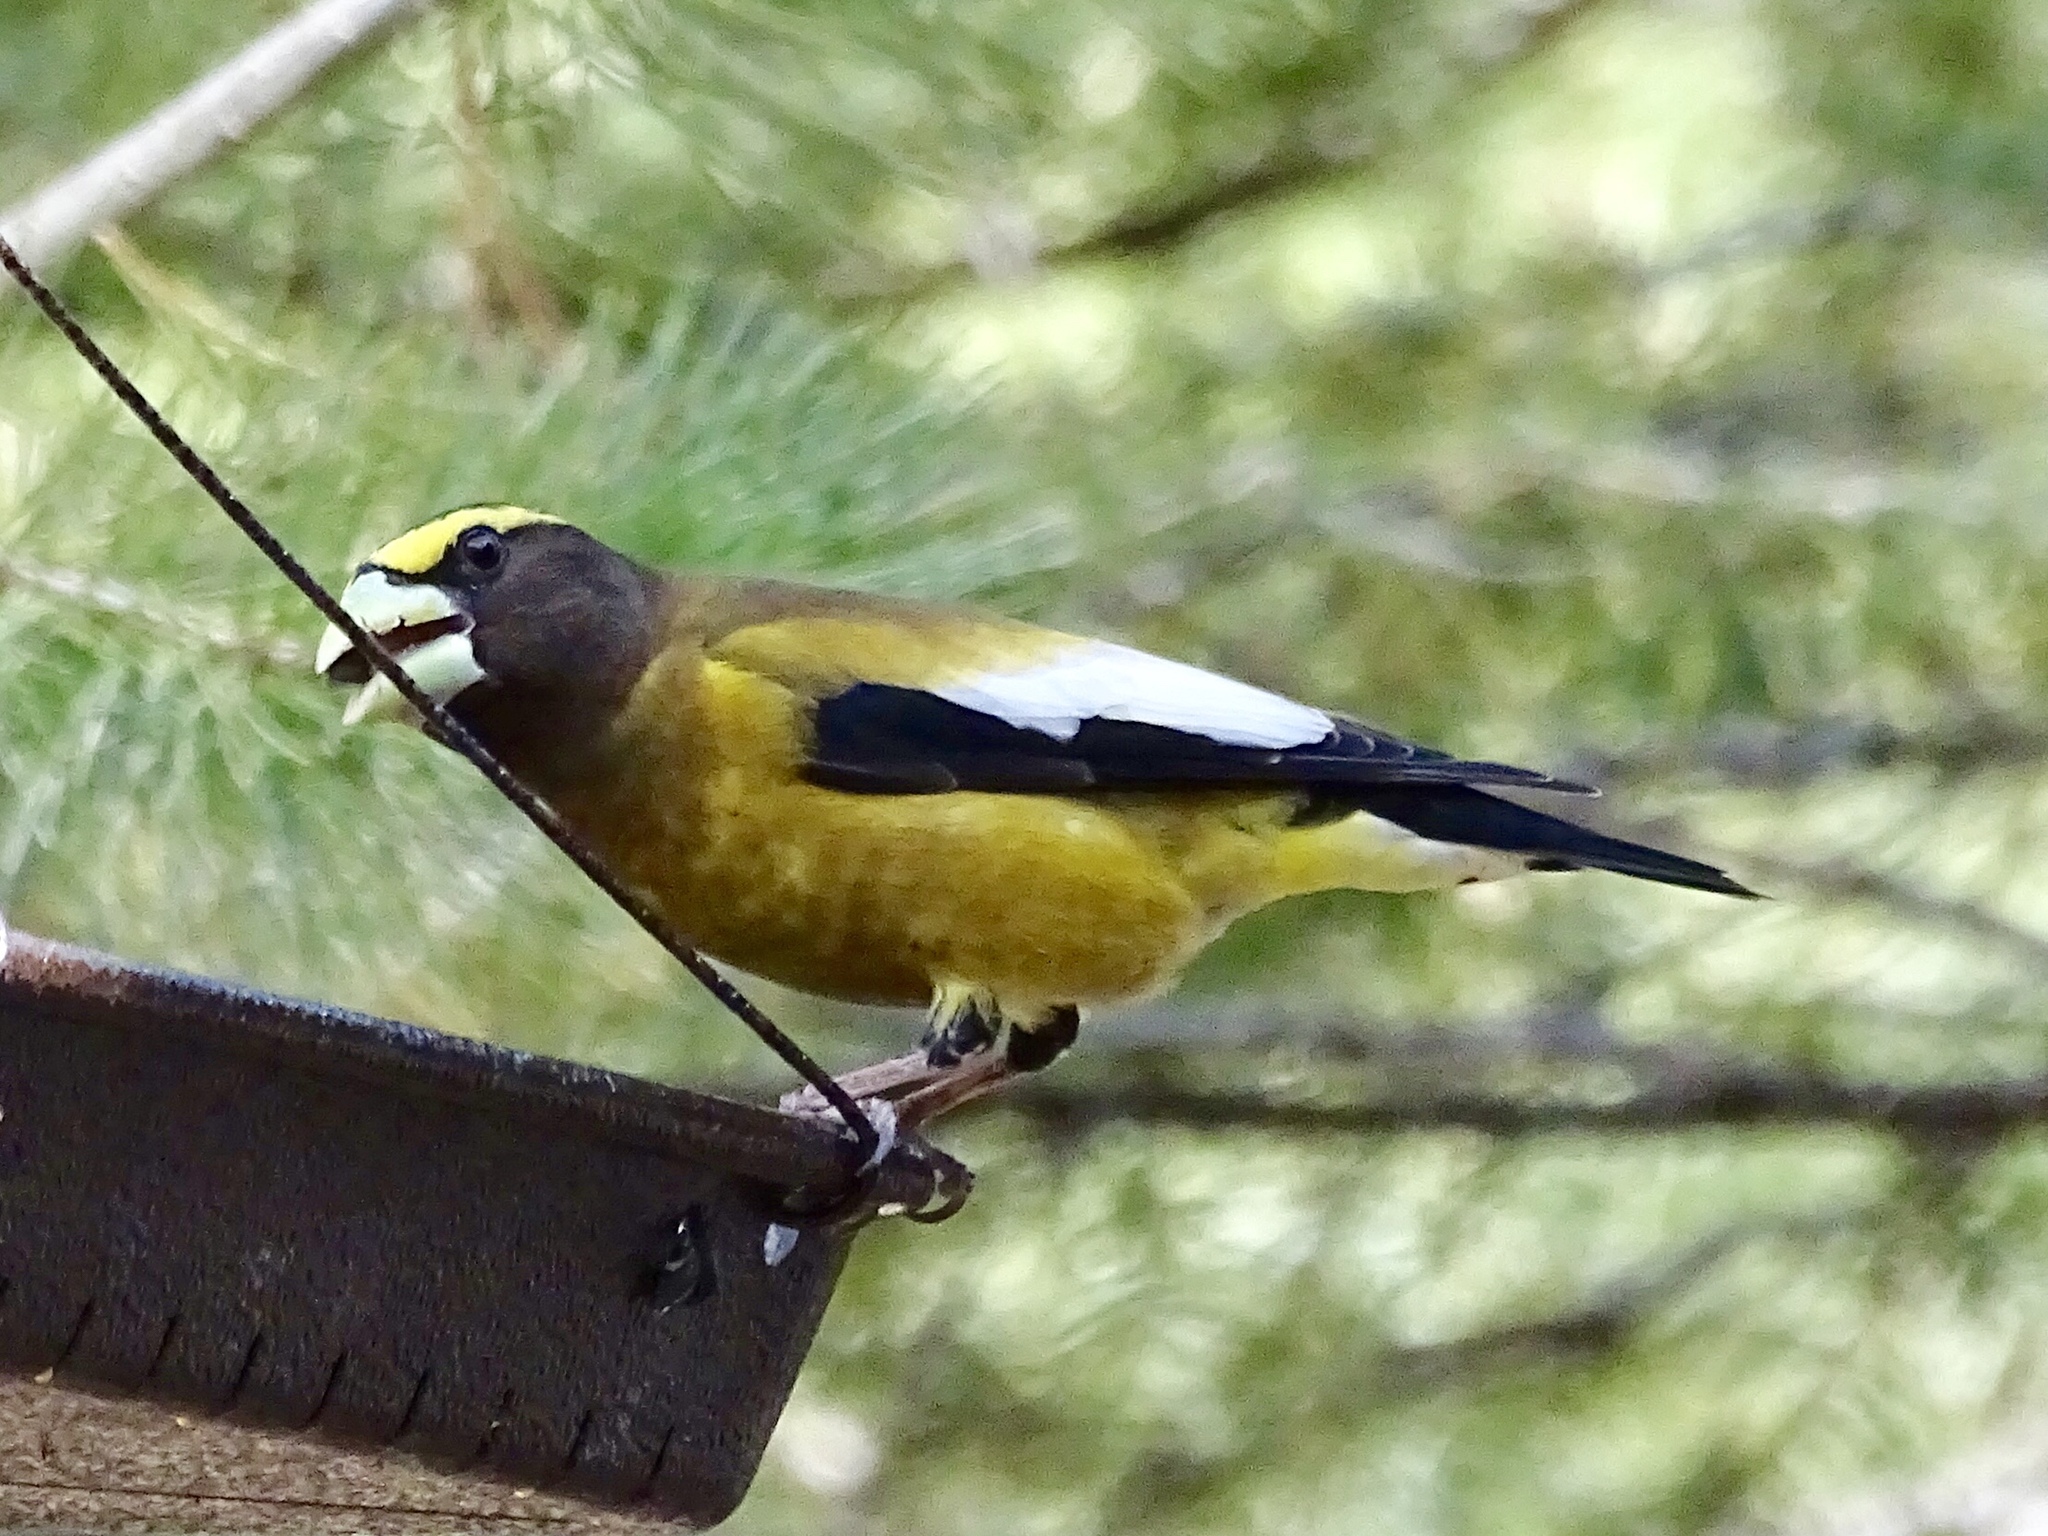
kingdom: Animalia
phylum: Chordata
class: Aves
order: Passeriformes
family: Fringillidae
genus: Hesperiphona
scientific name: Hesperiphona vespertina
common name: Evening grosbeak
